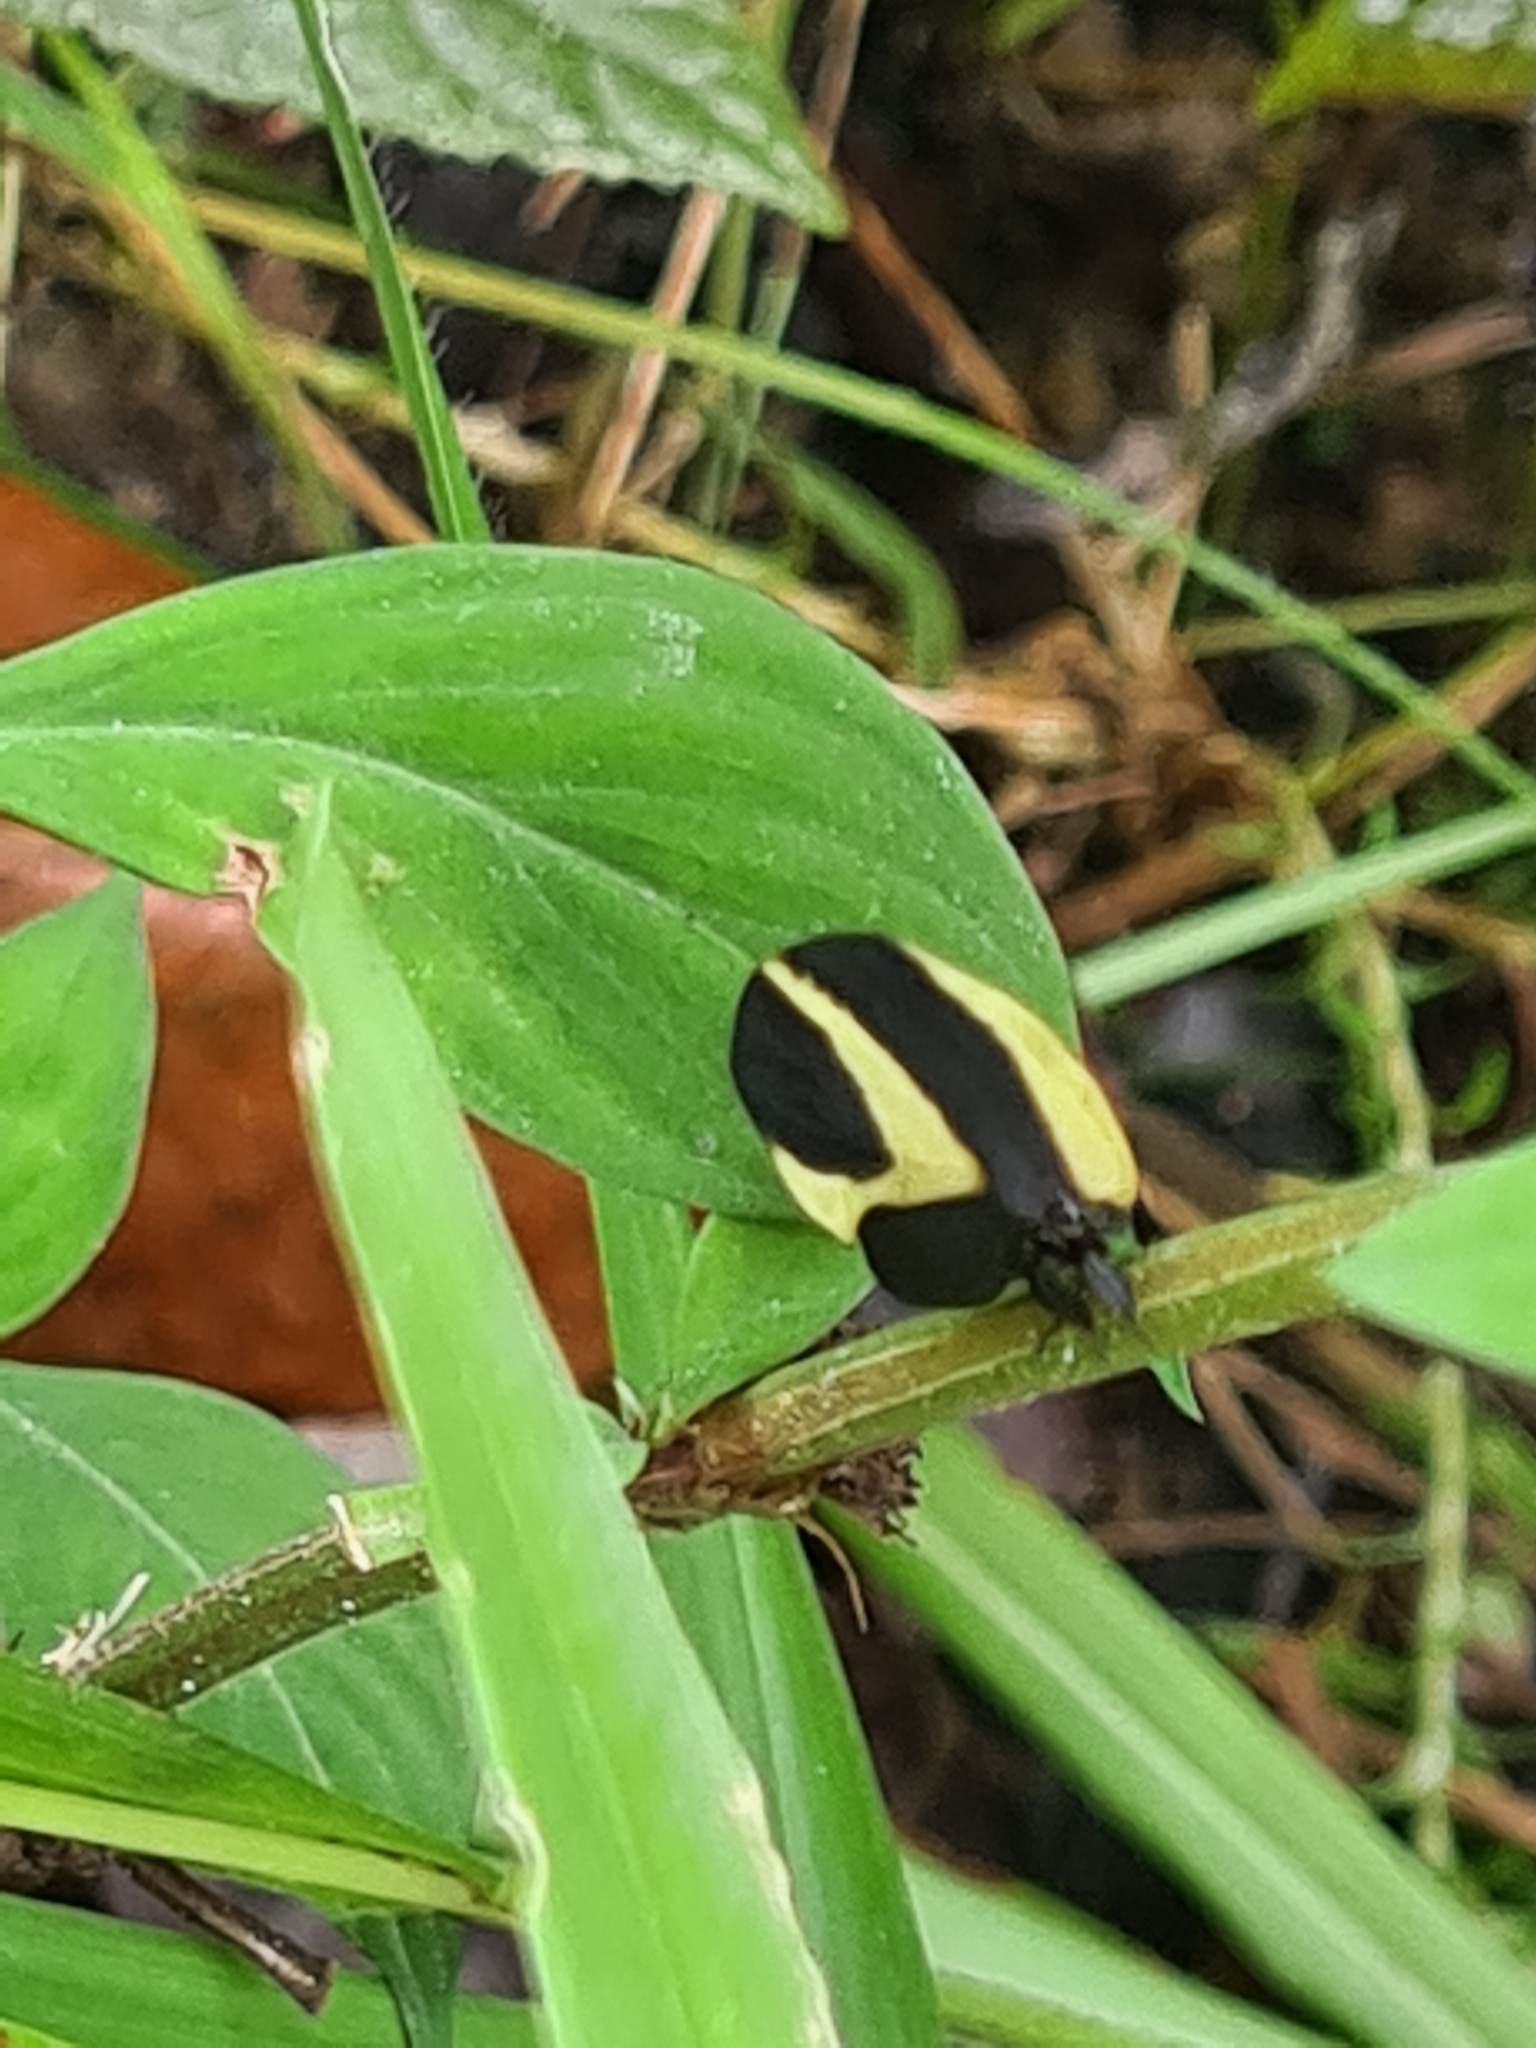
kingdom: Animalia
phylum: Arthropoda
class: Insecta
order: Hemiptera
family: Membracidae
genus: Membracis
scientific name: Membracis foliata
